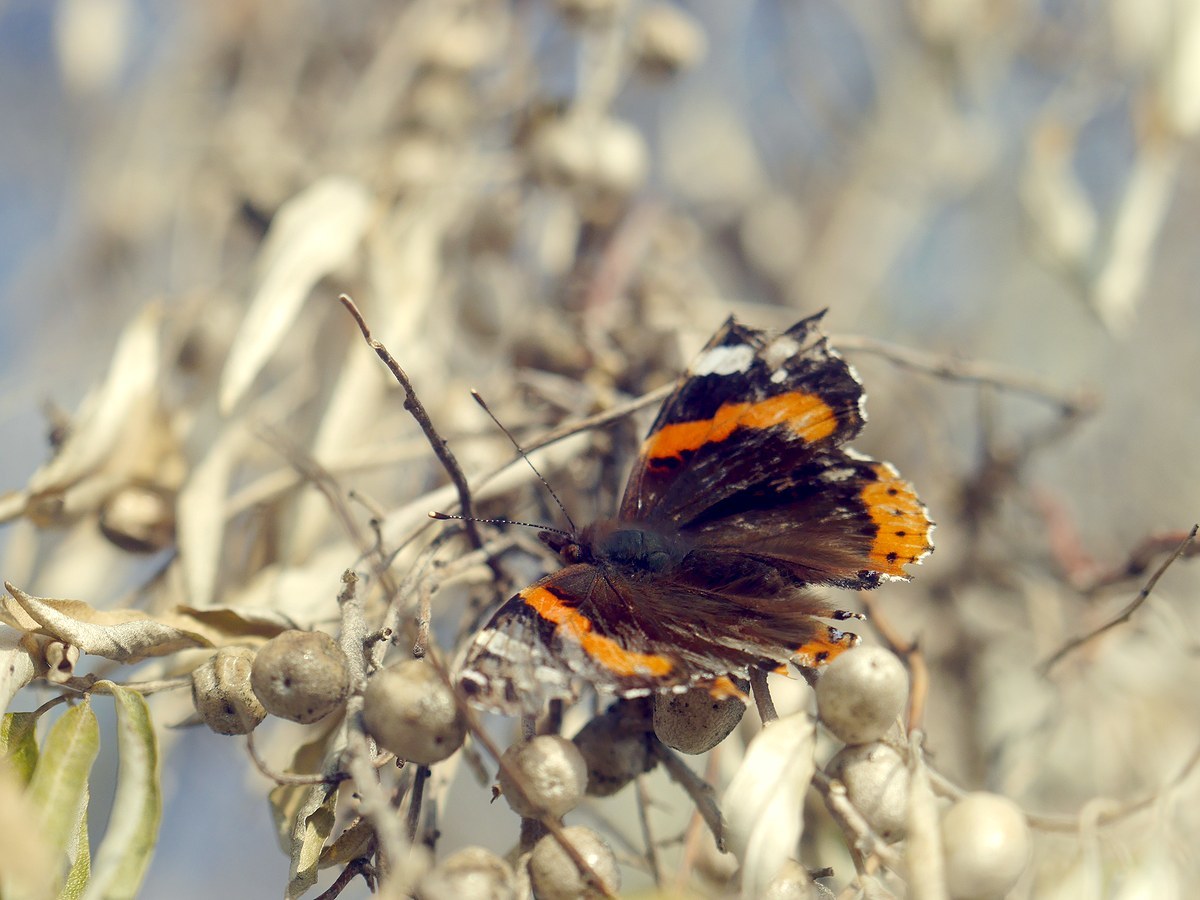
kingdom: Animalia
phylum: Arthropoda
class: Insecta
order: Lepidoptera
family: Nymphalidae
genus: Vanessa
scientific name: Vanessa atalanta
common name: Red admiral
